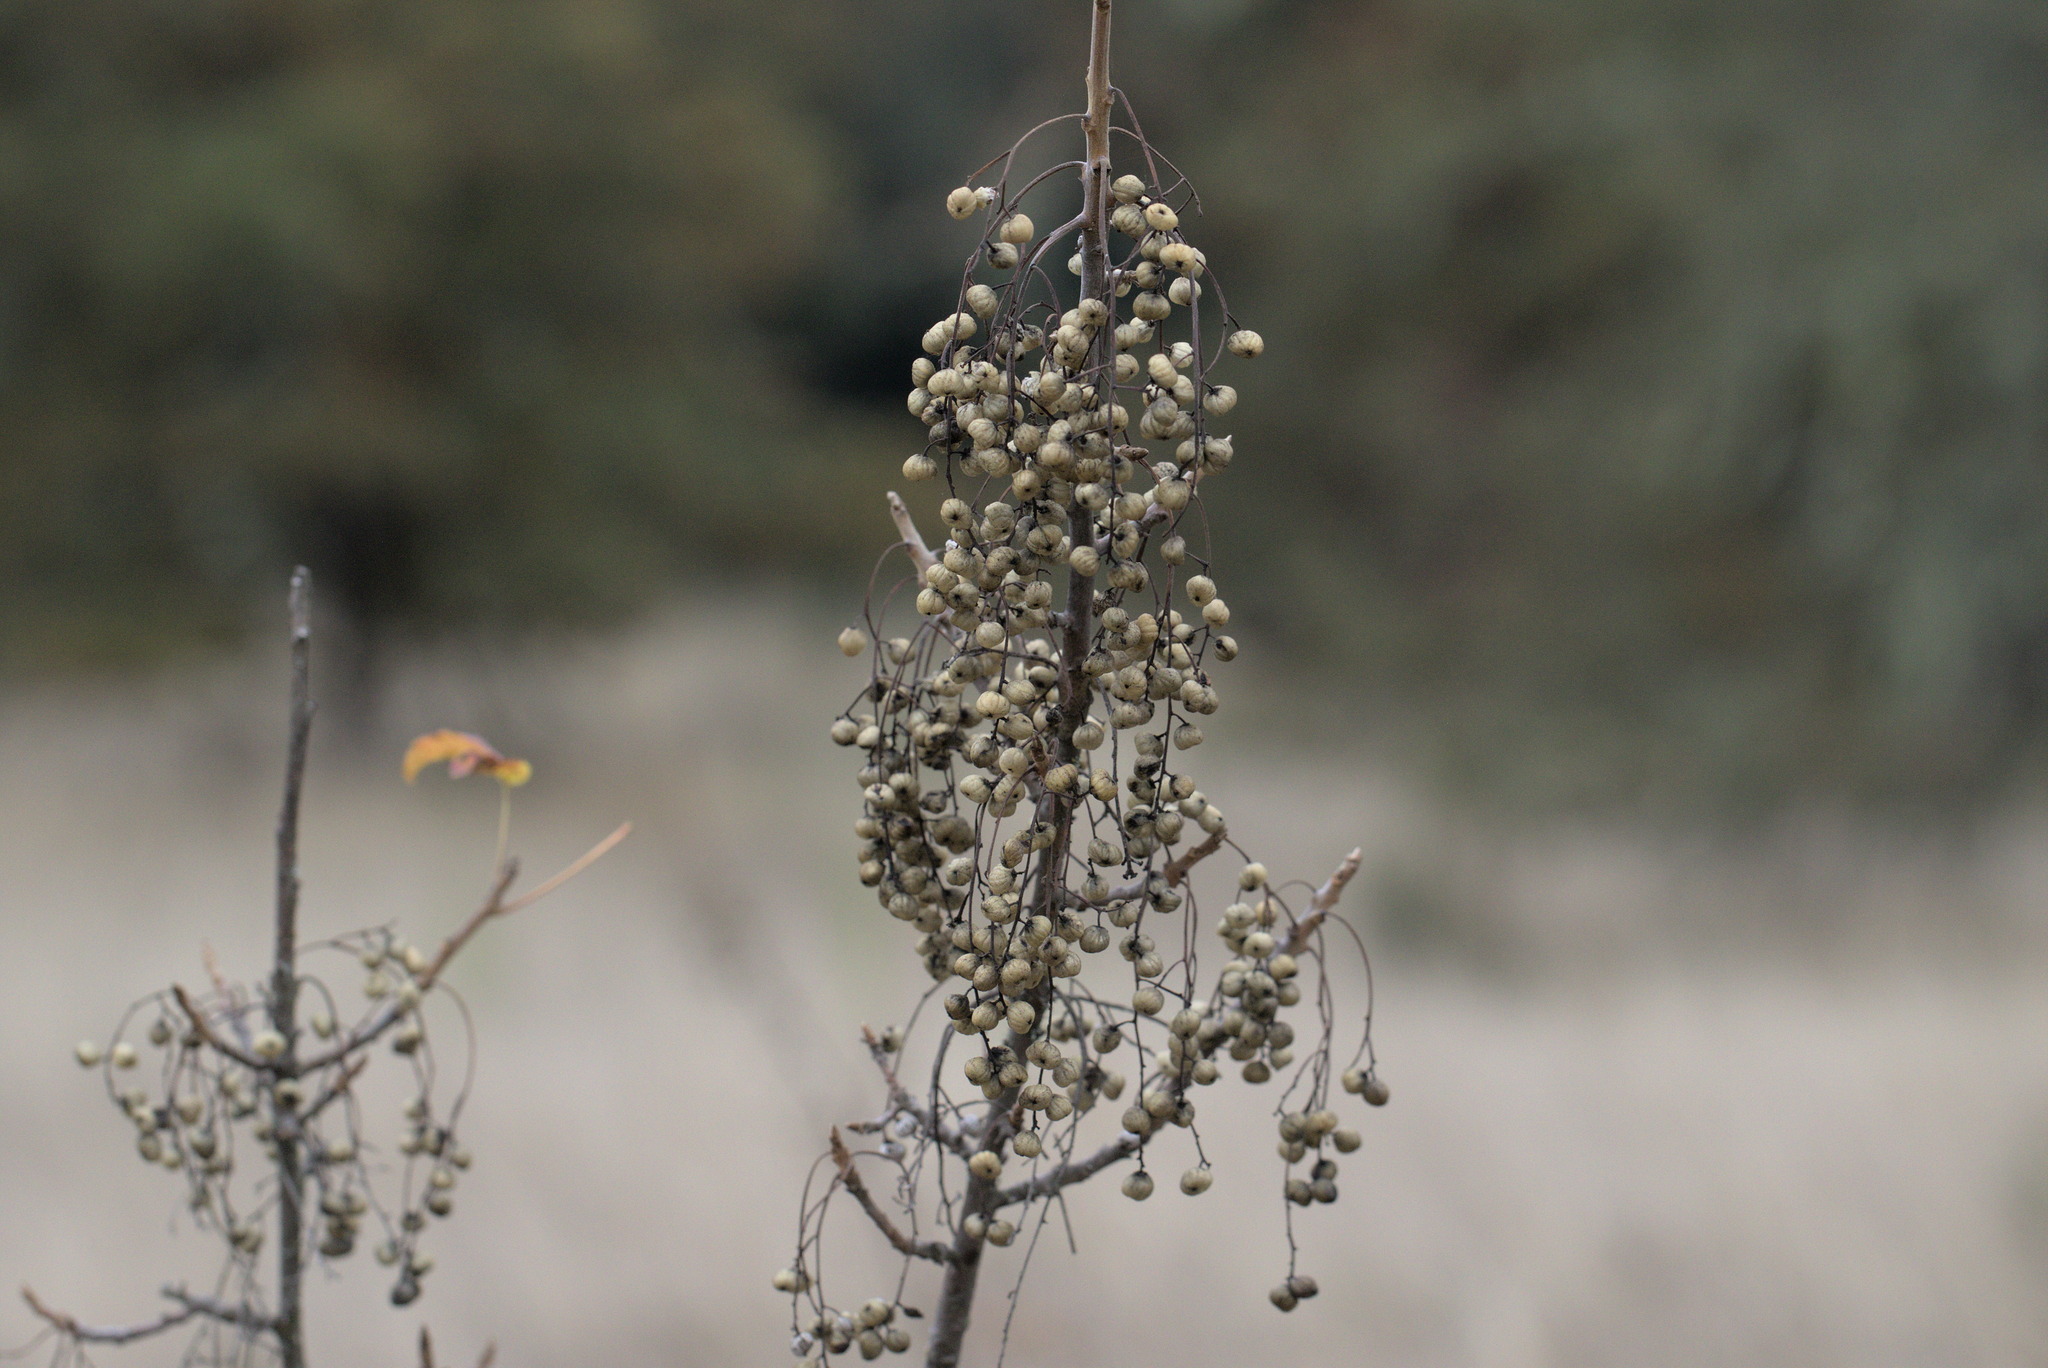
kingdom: Plantae
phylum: Tracheophyta
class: Magnoliopsida
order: Sapindales
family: Anacardiaceae
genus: Toxicodendron
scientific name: Toxicodendron diversilobum
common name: Pacific poison-oak
